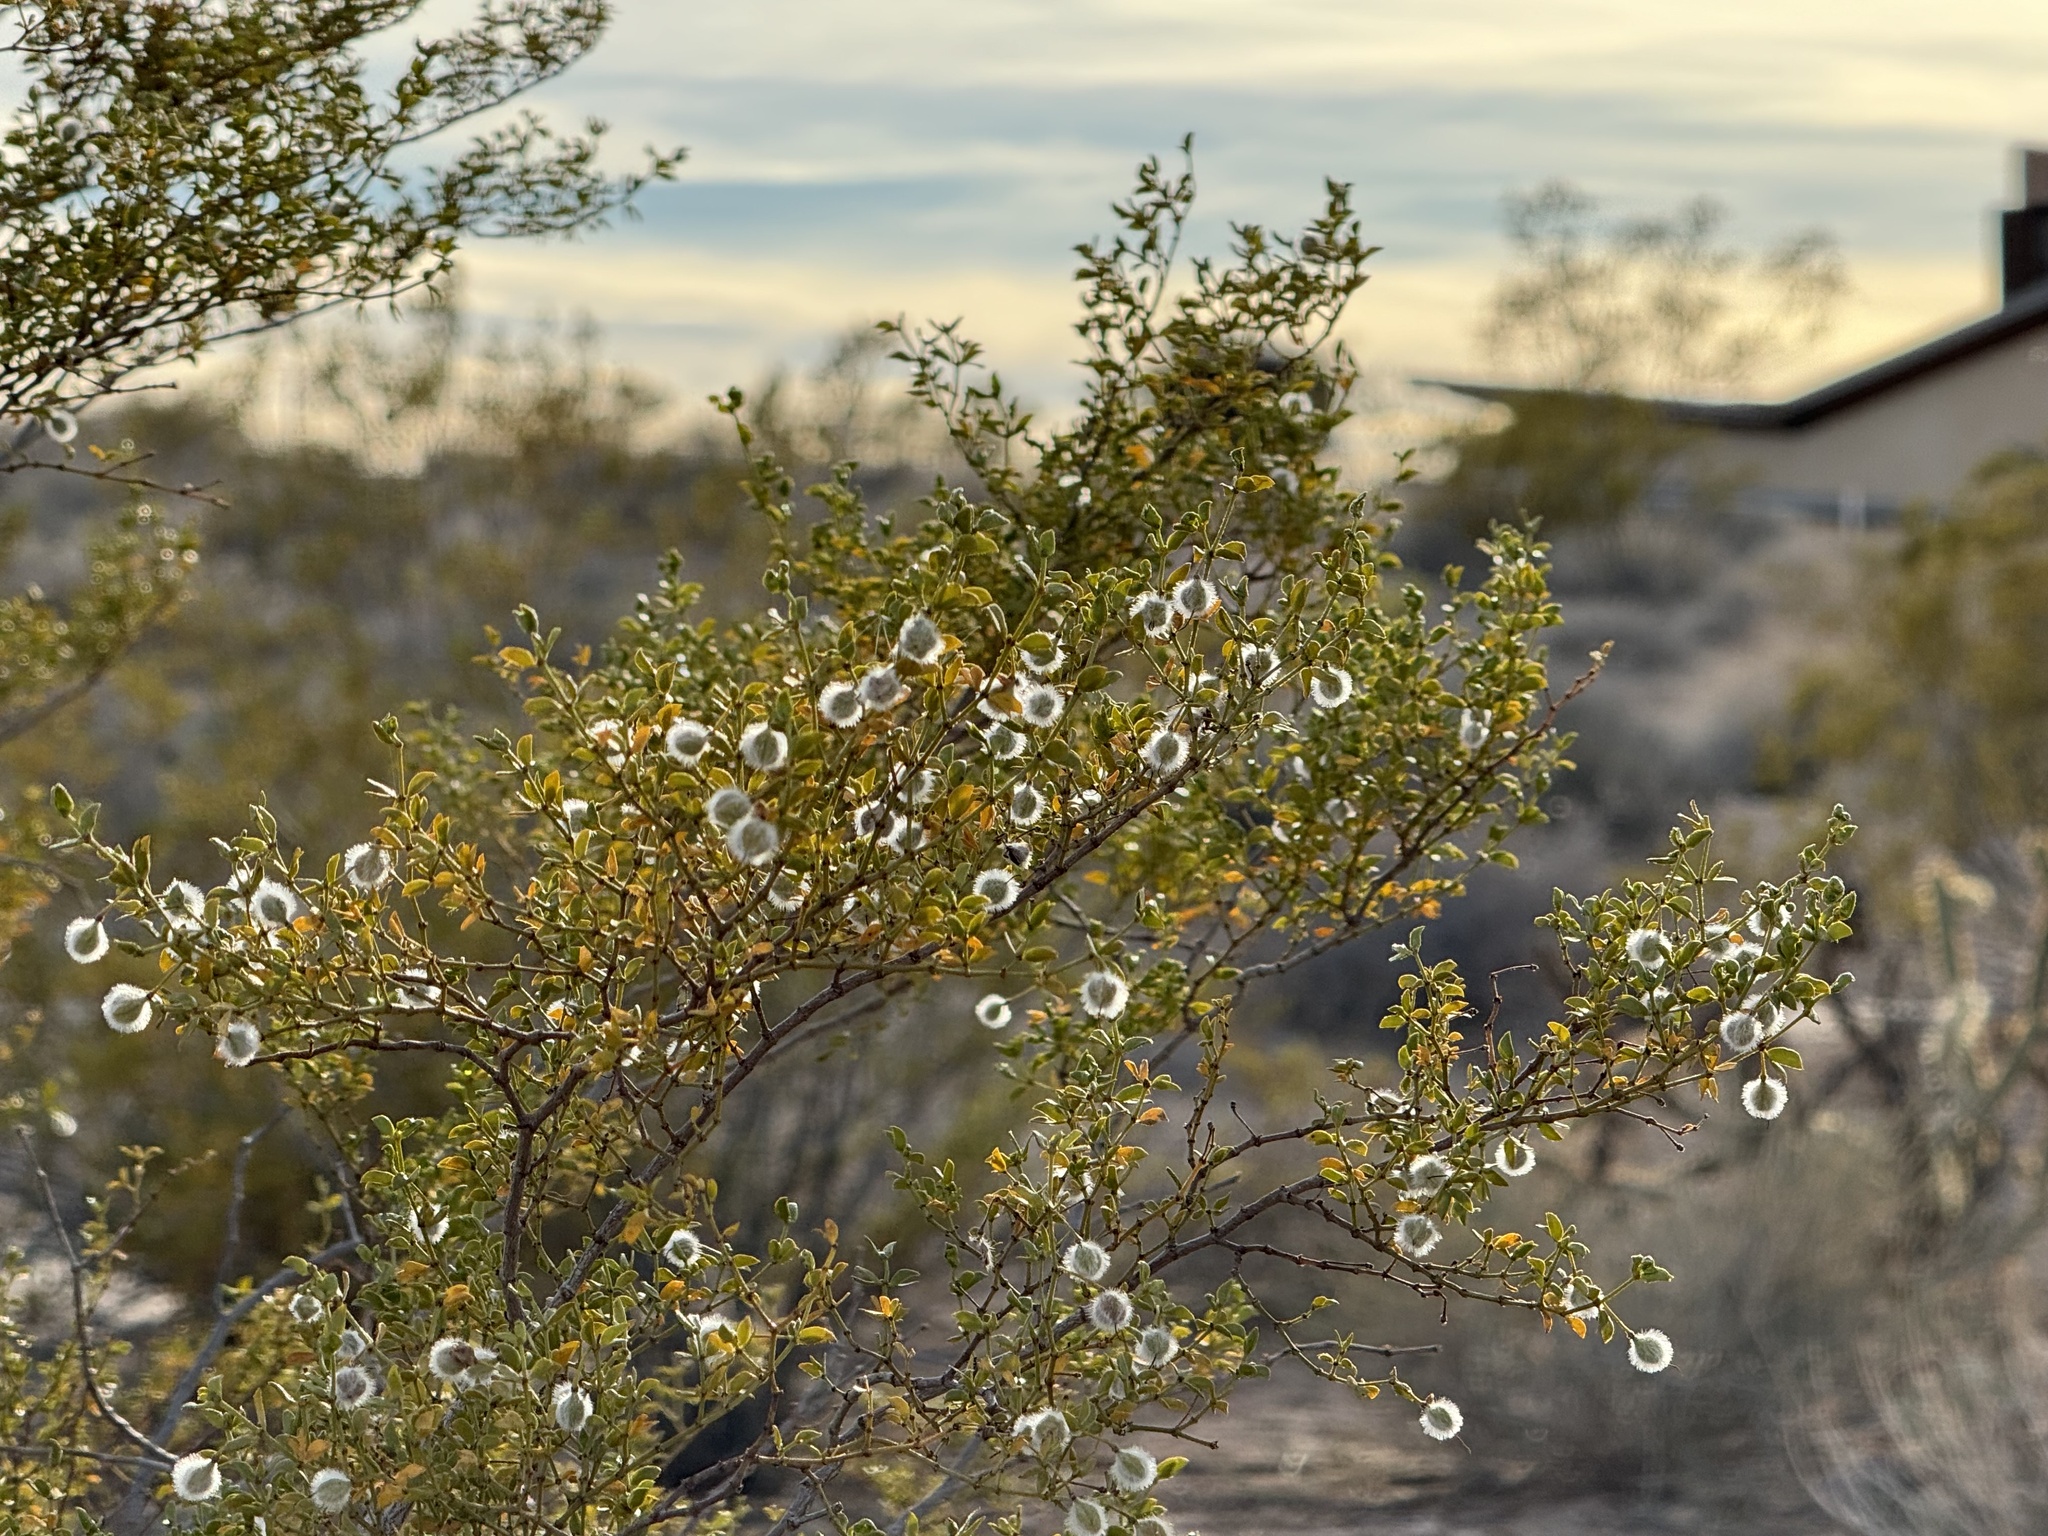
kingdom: Plantae
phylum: Tracheophyta
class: Magnoliopsida
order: Zygophyllales
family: Zygophyllaceae
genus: Larrea
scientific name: Larrea tridentata
